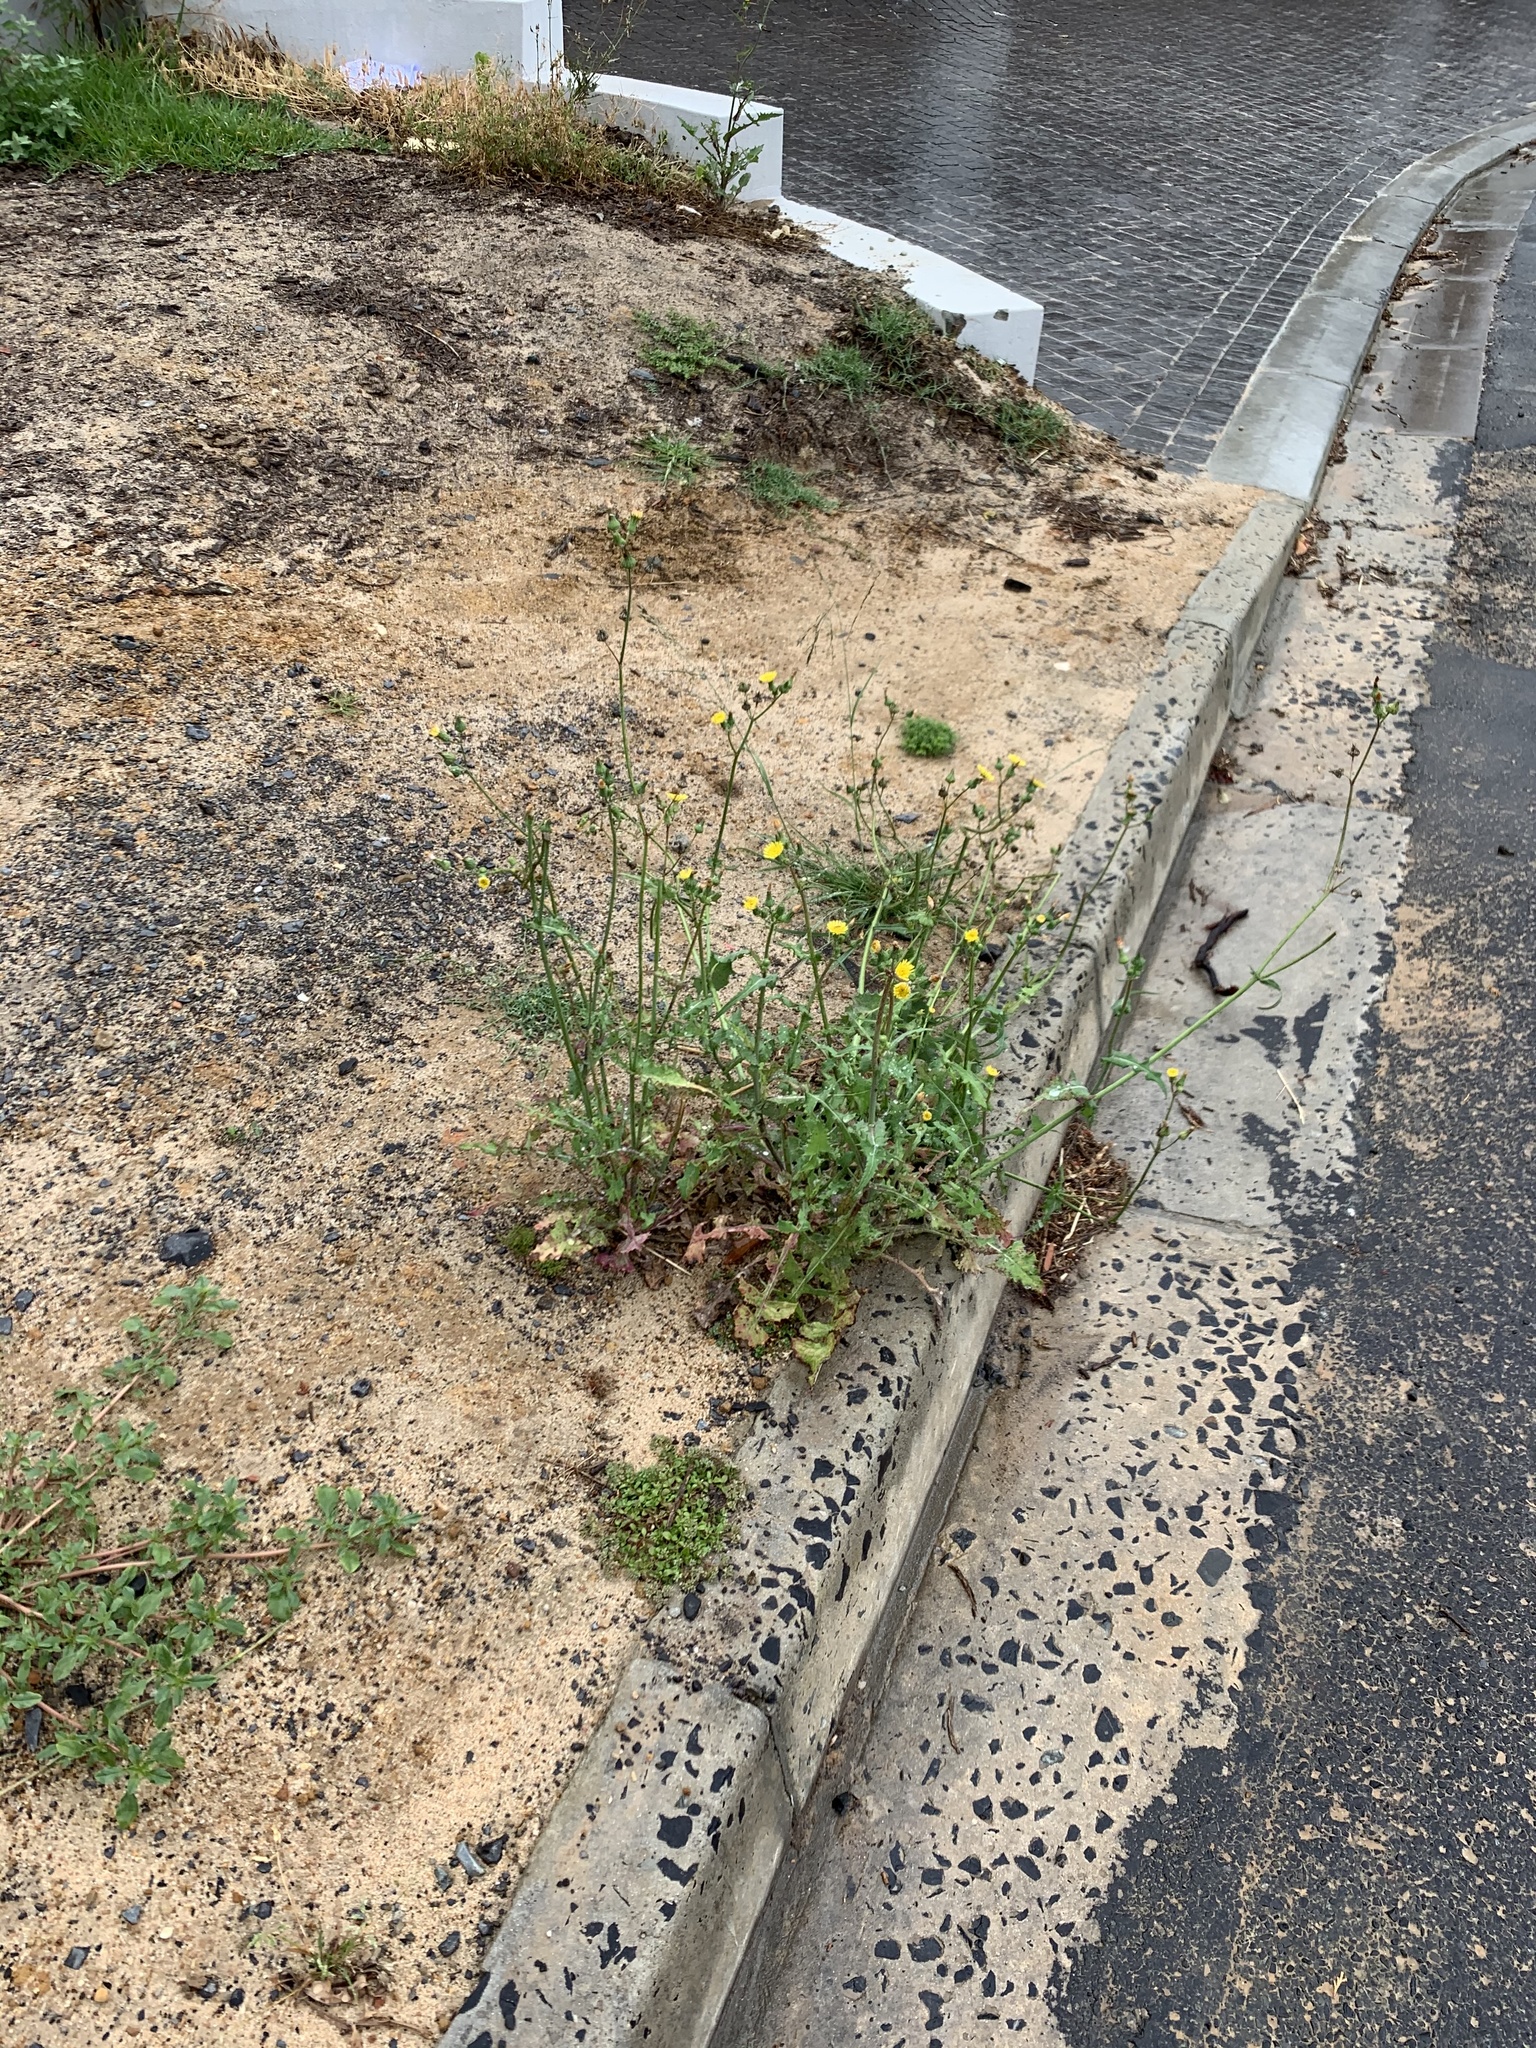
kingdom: Plantae
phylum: Tracheophyta
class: Magnoliopsida
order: Asterales
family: Asteraceae
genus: Sonchus
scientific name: Sonchus oleraceus
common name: Common sowthistle
